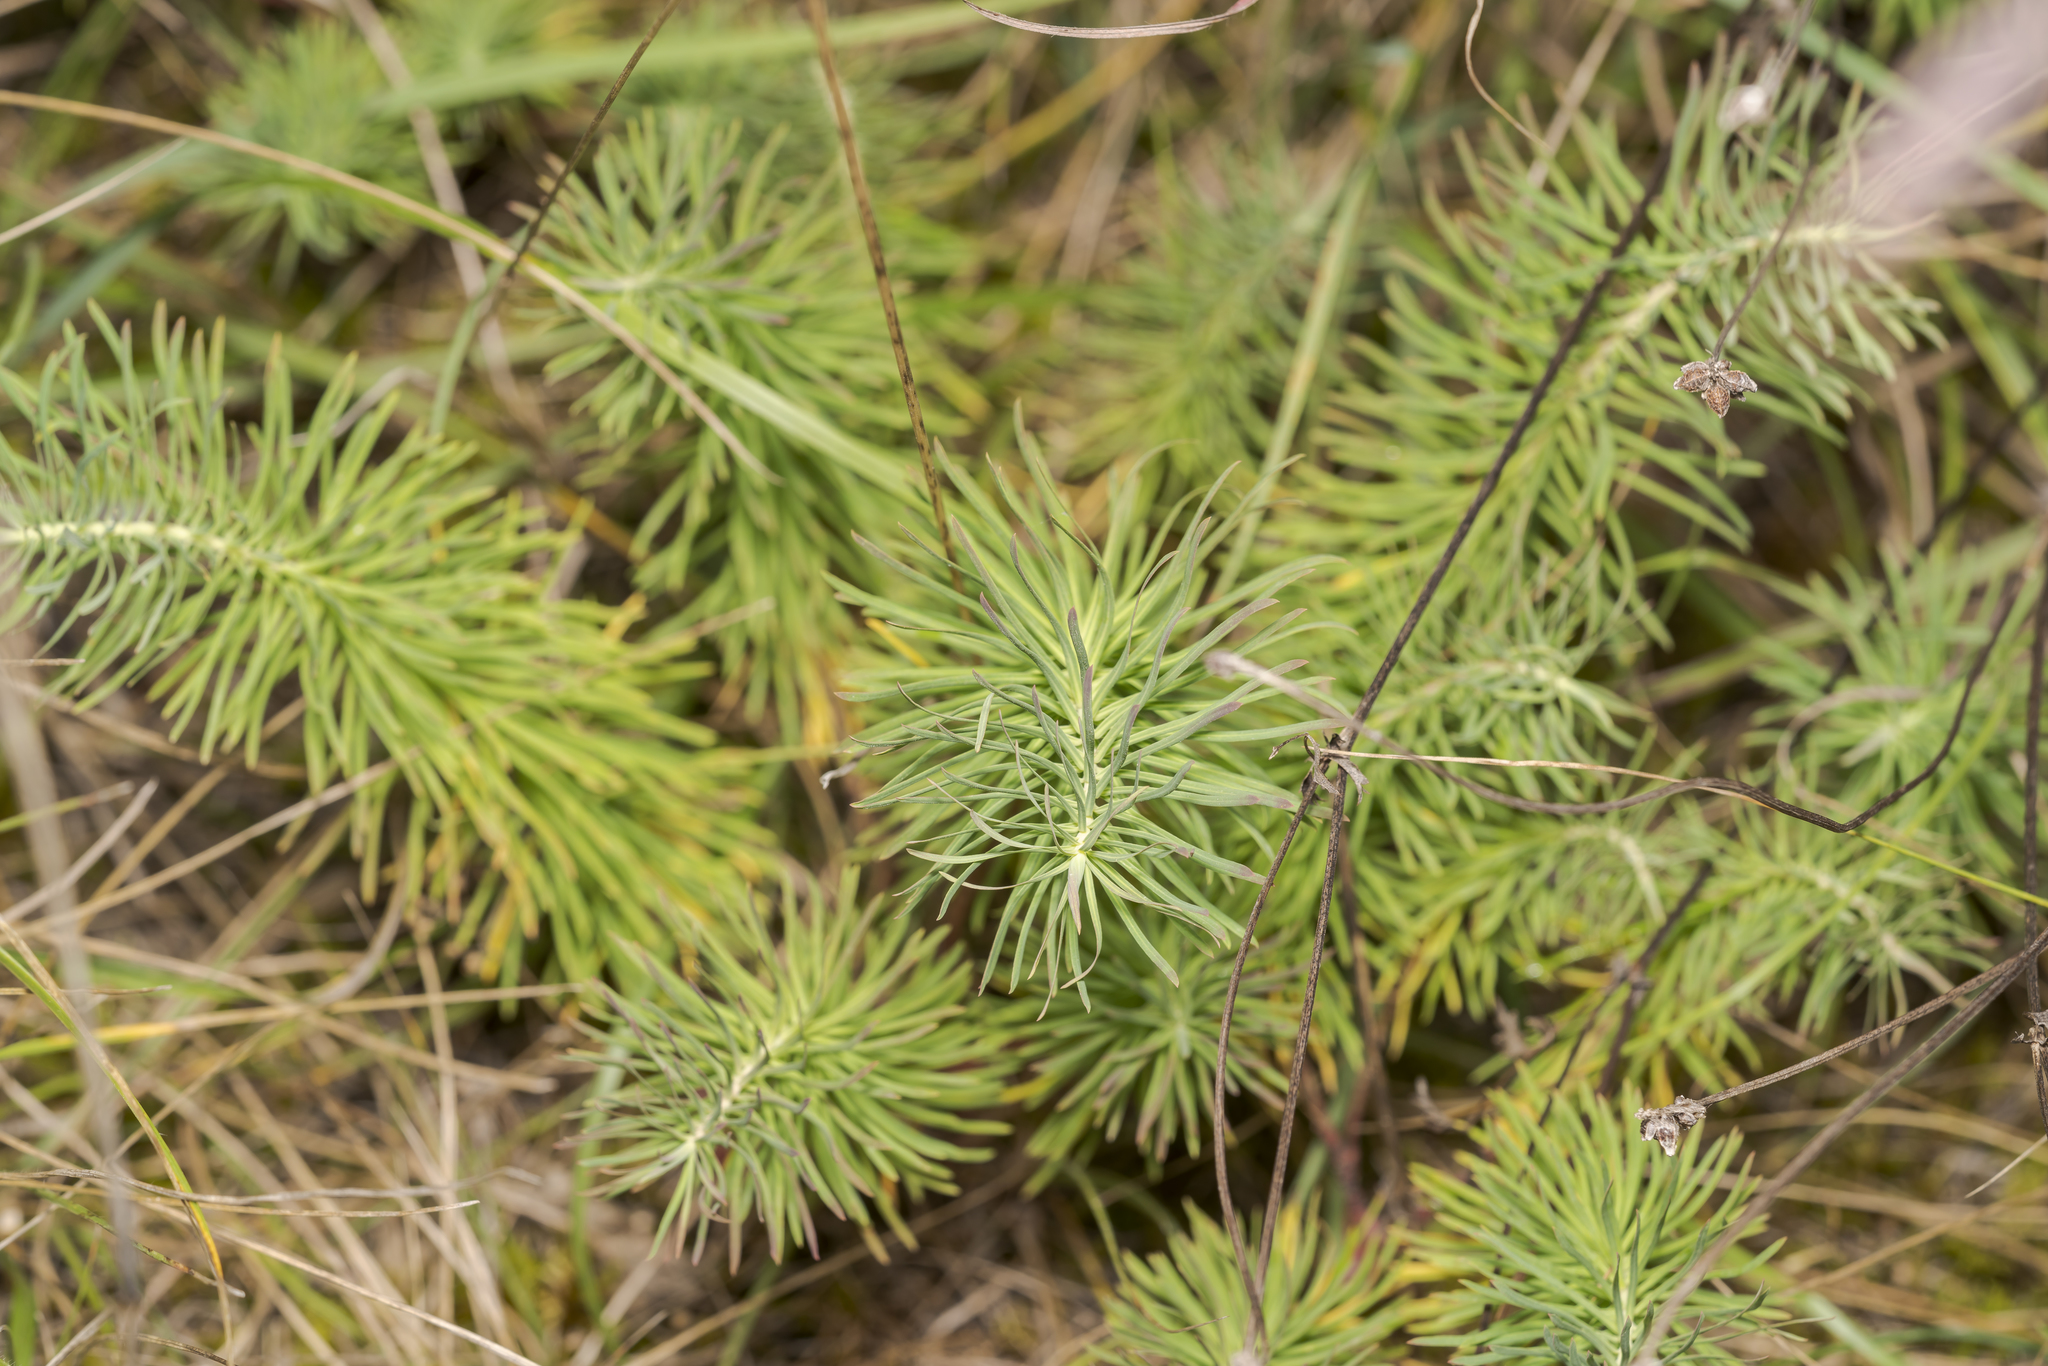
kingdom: Plantae
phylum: Tracheophyta
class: Magnoliopsida
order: Malpighiales
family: Euphorbiaceae
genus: Euphorbia
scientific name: Euphorbia cyparissias
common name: Cypress spurge
